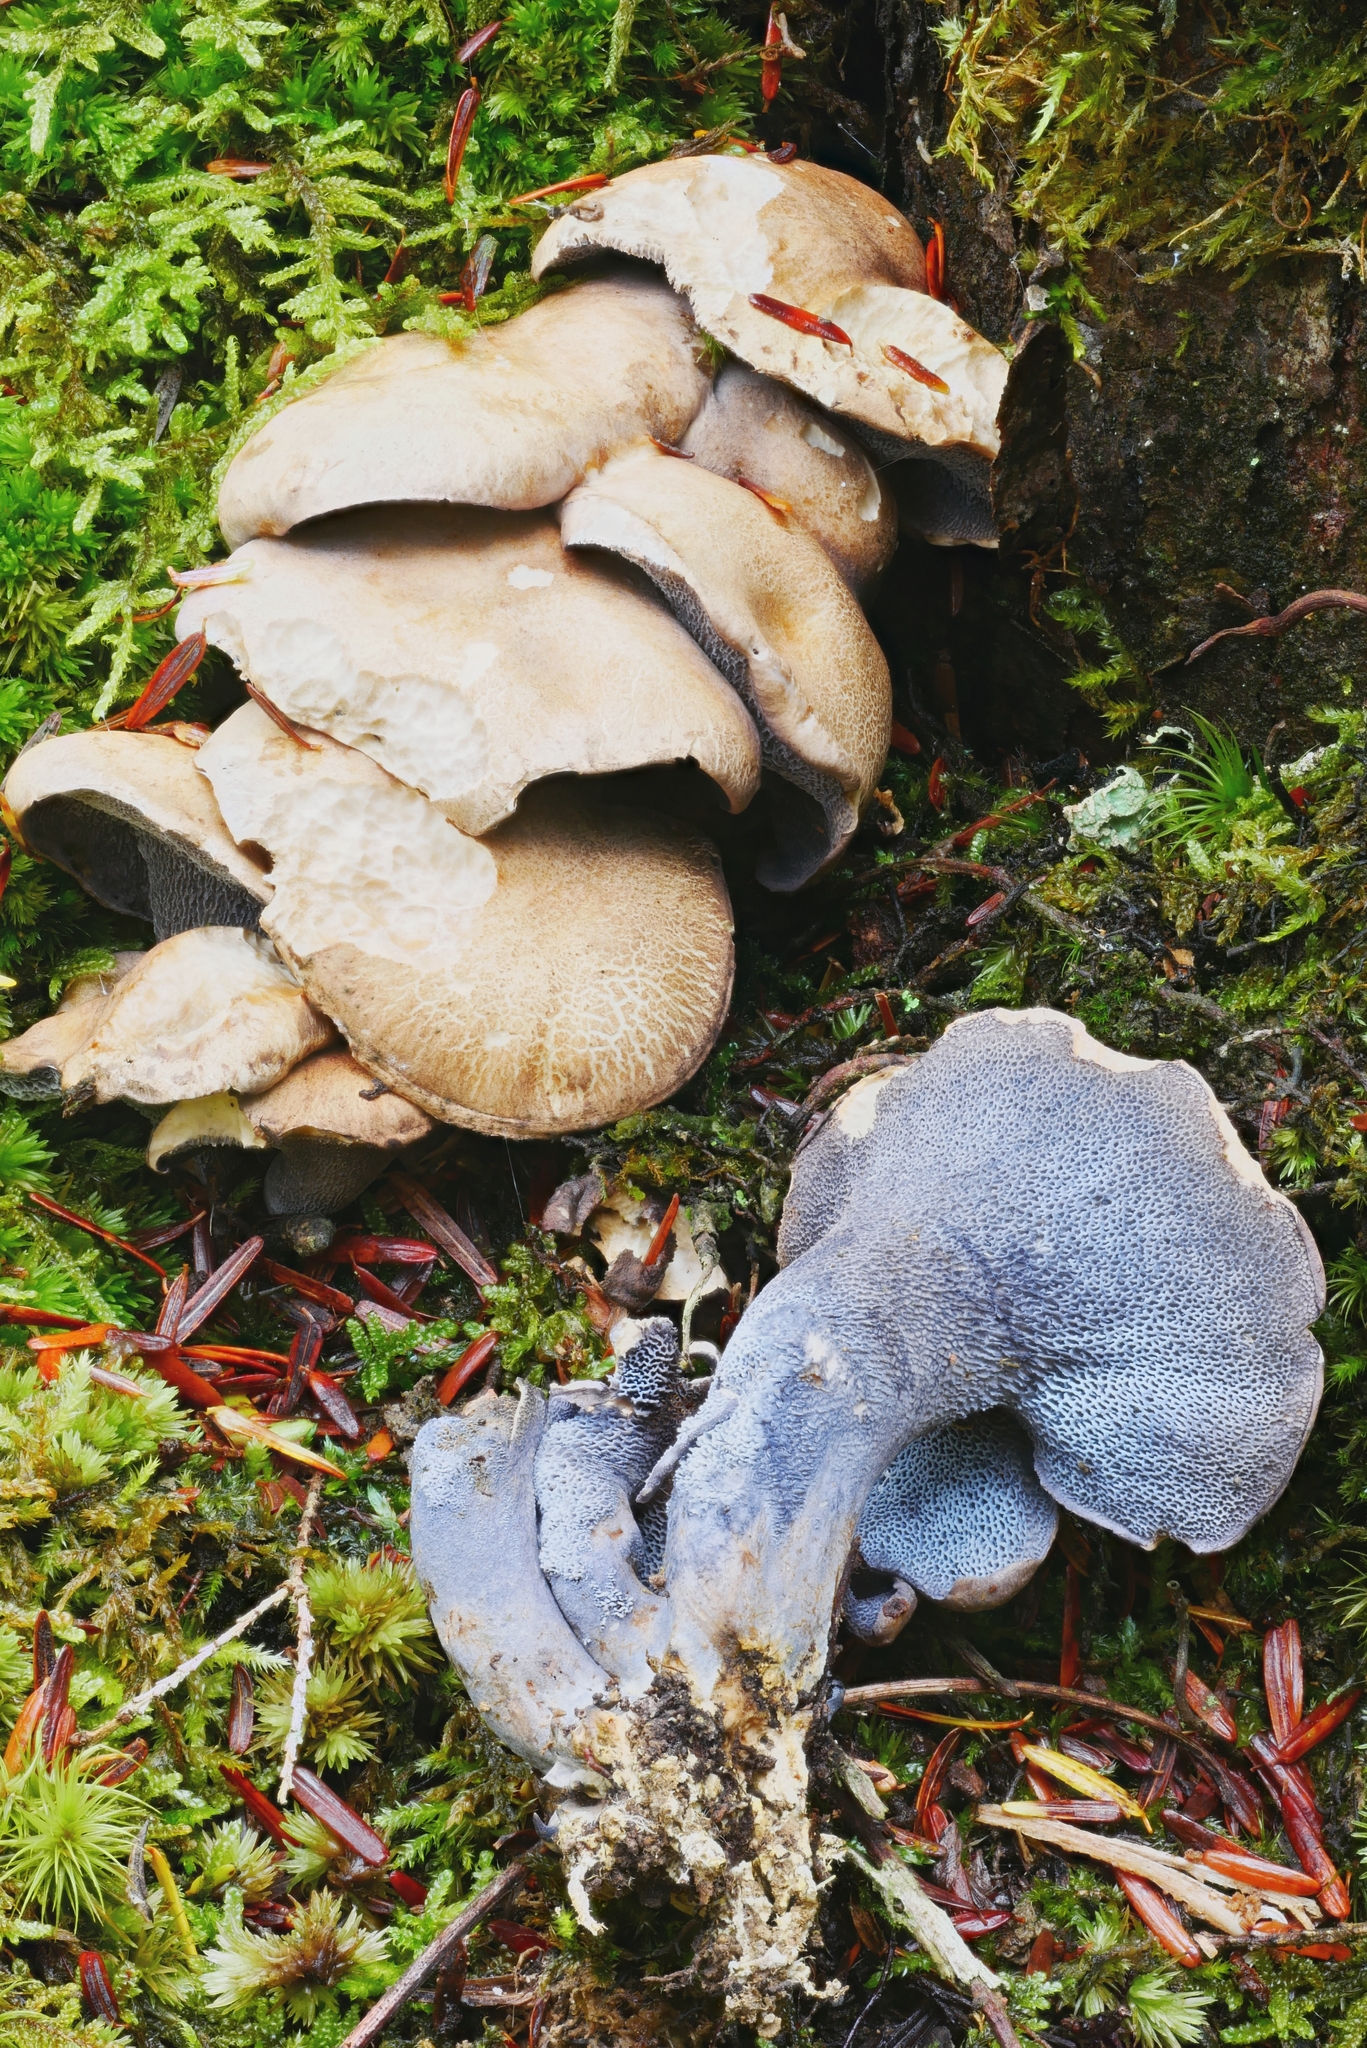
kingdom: Fungi
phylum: Basidiomycota
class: Agaricomycetes
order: Russulales
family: Albatrellaceae
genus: Neoalbatrellus
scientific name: Neoalbatrellus caeruleoporus
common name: Blue polypore
